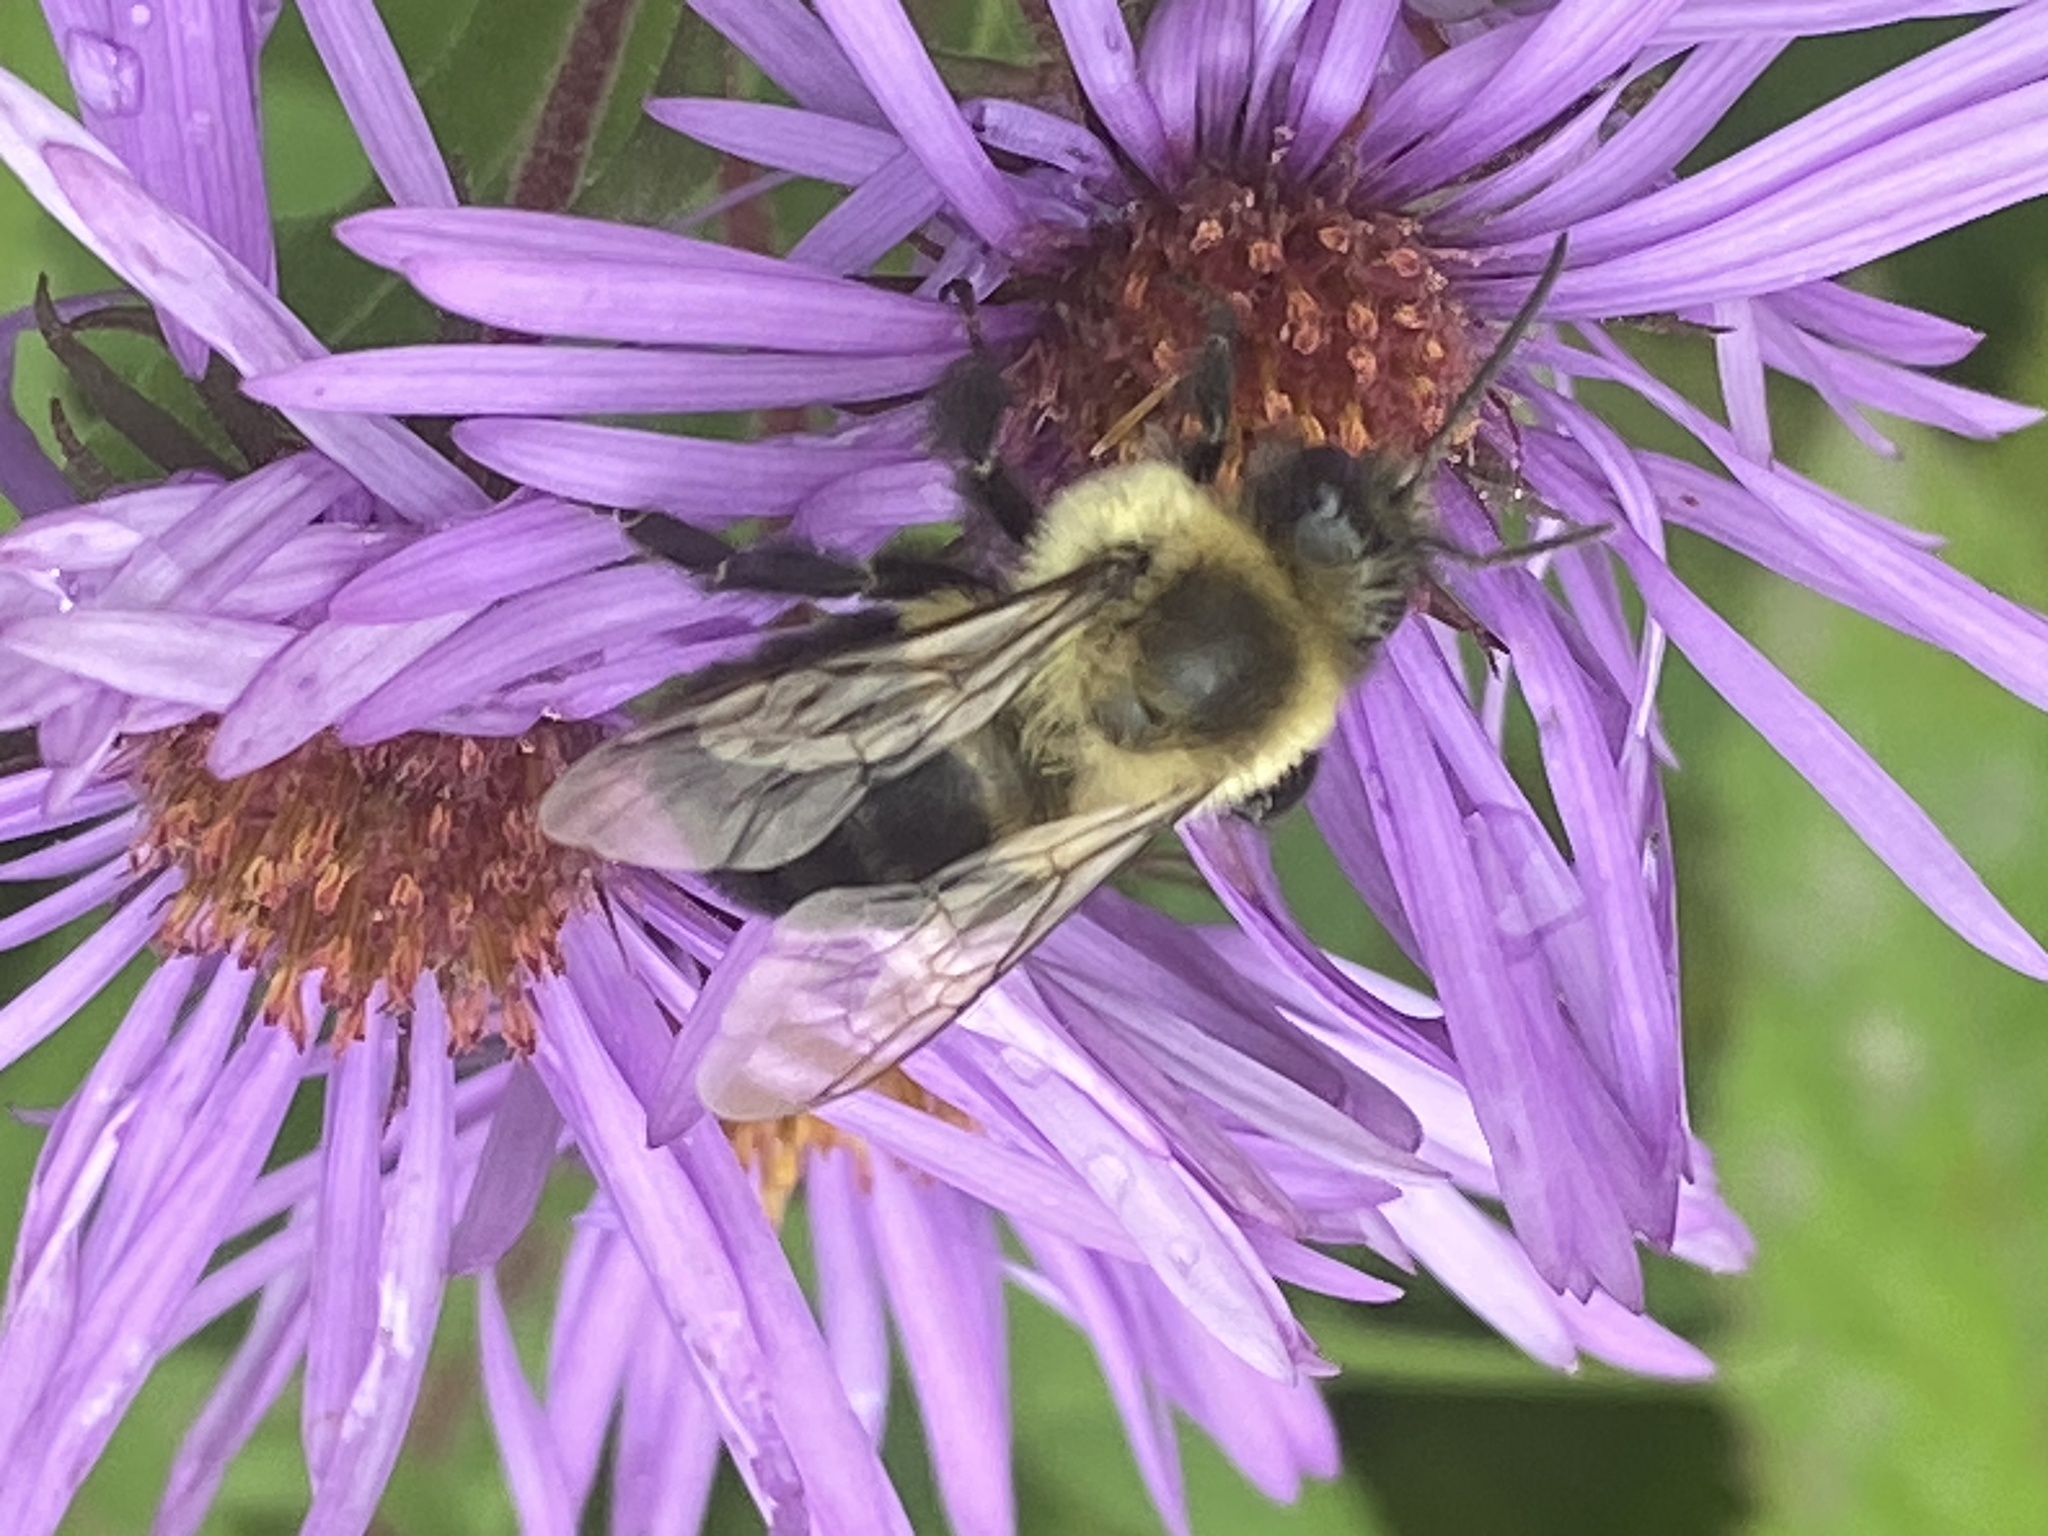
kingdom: Animalia
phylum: Arthropoda
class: Insecta
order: Hymenoptera
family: Apidae
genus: Bombus
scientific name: Bombus impatiens
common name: Common eastern bumble bee
